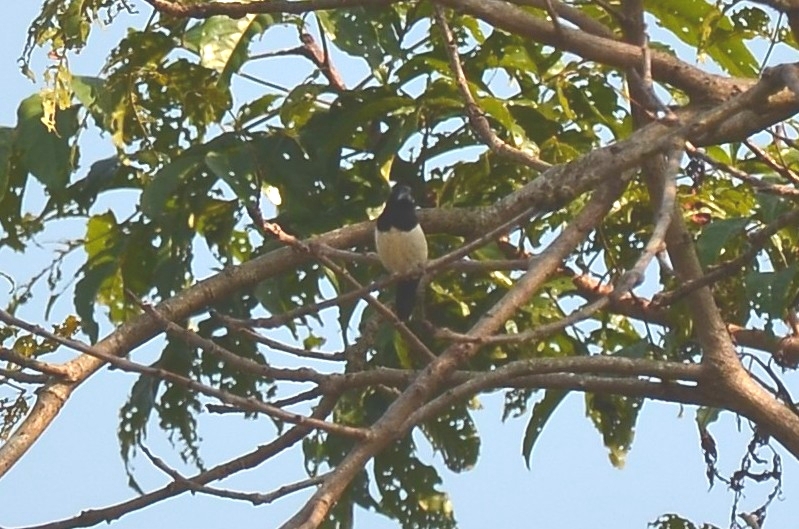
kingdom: Animalia
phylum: Chordata
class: Aves
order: Passeriformes
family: Estrildidae
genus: Lonchura
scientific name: Lonchura striata
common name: White-rumped munia
